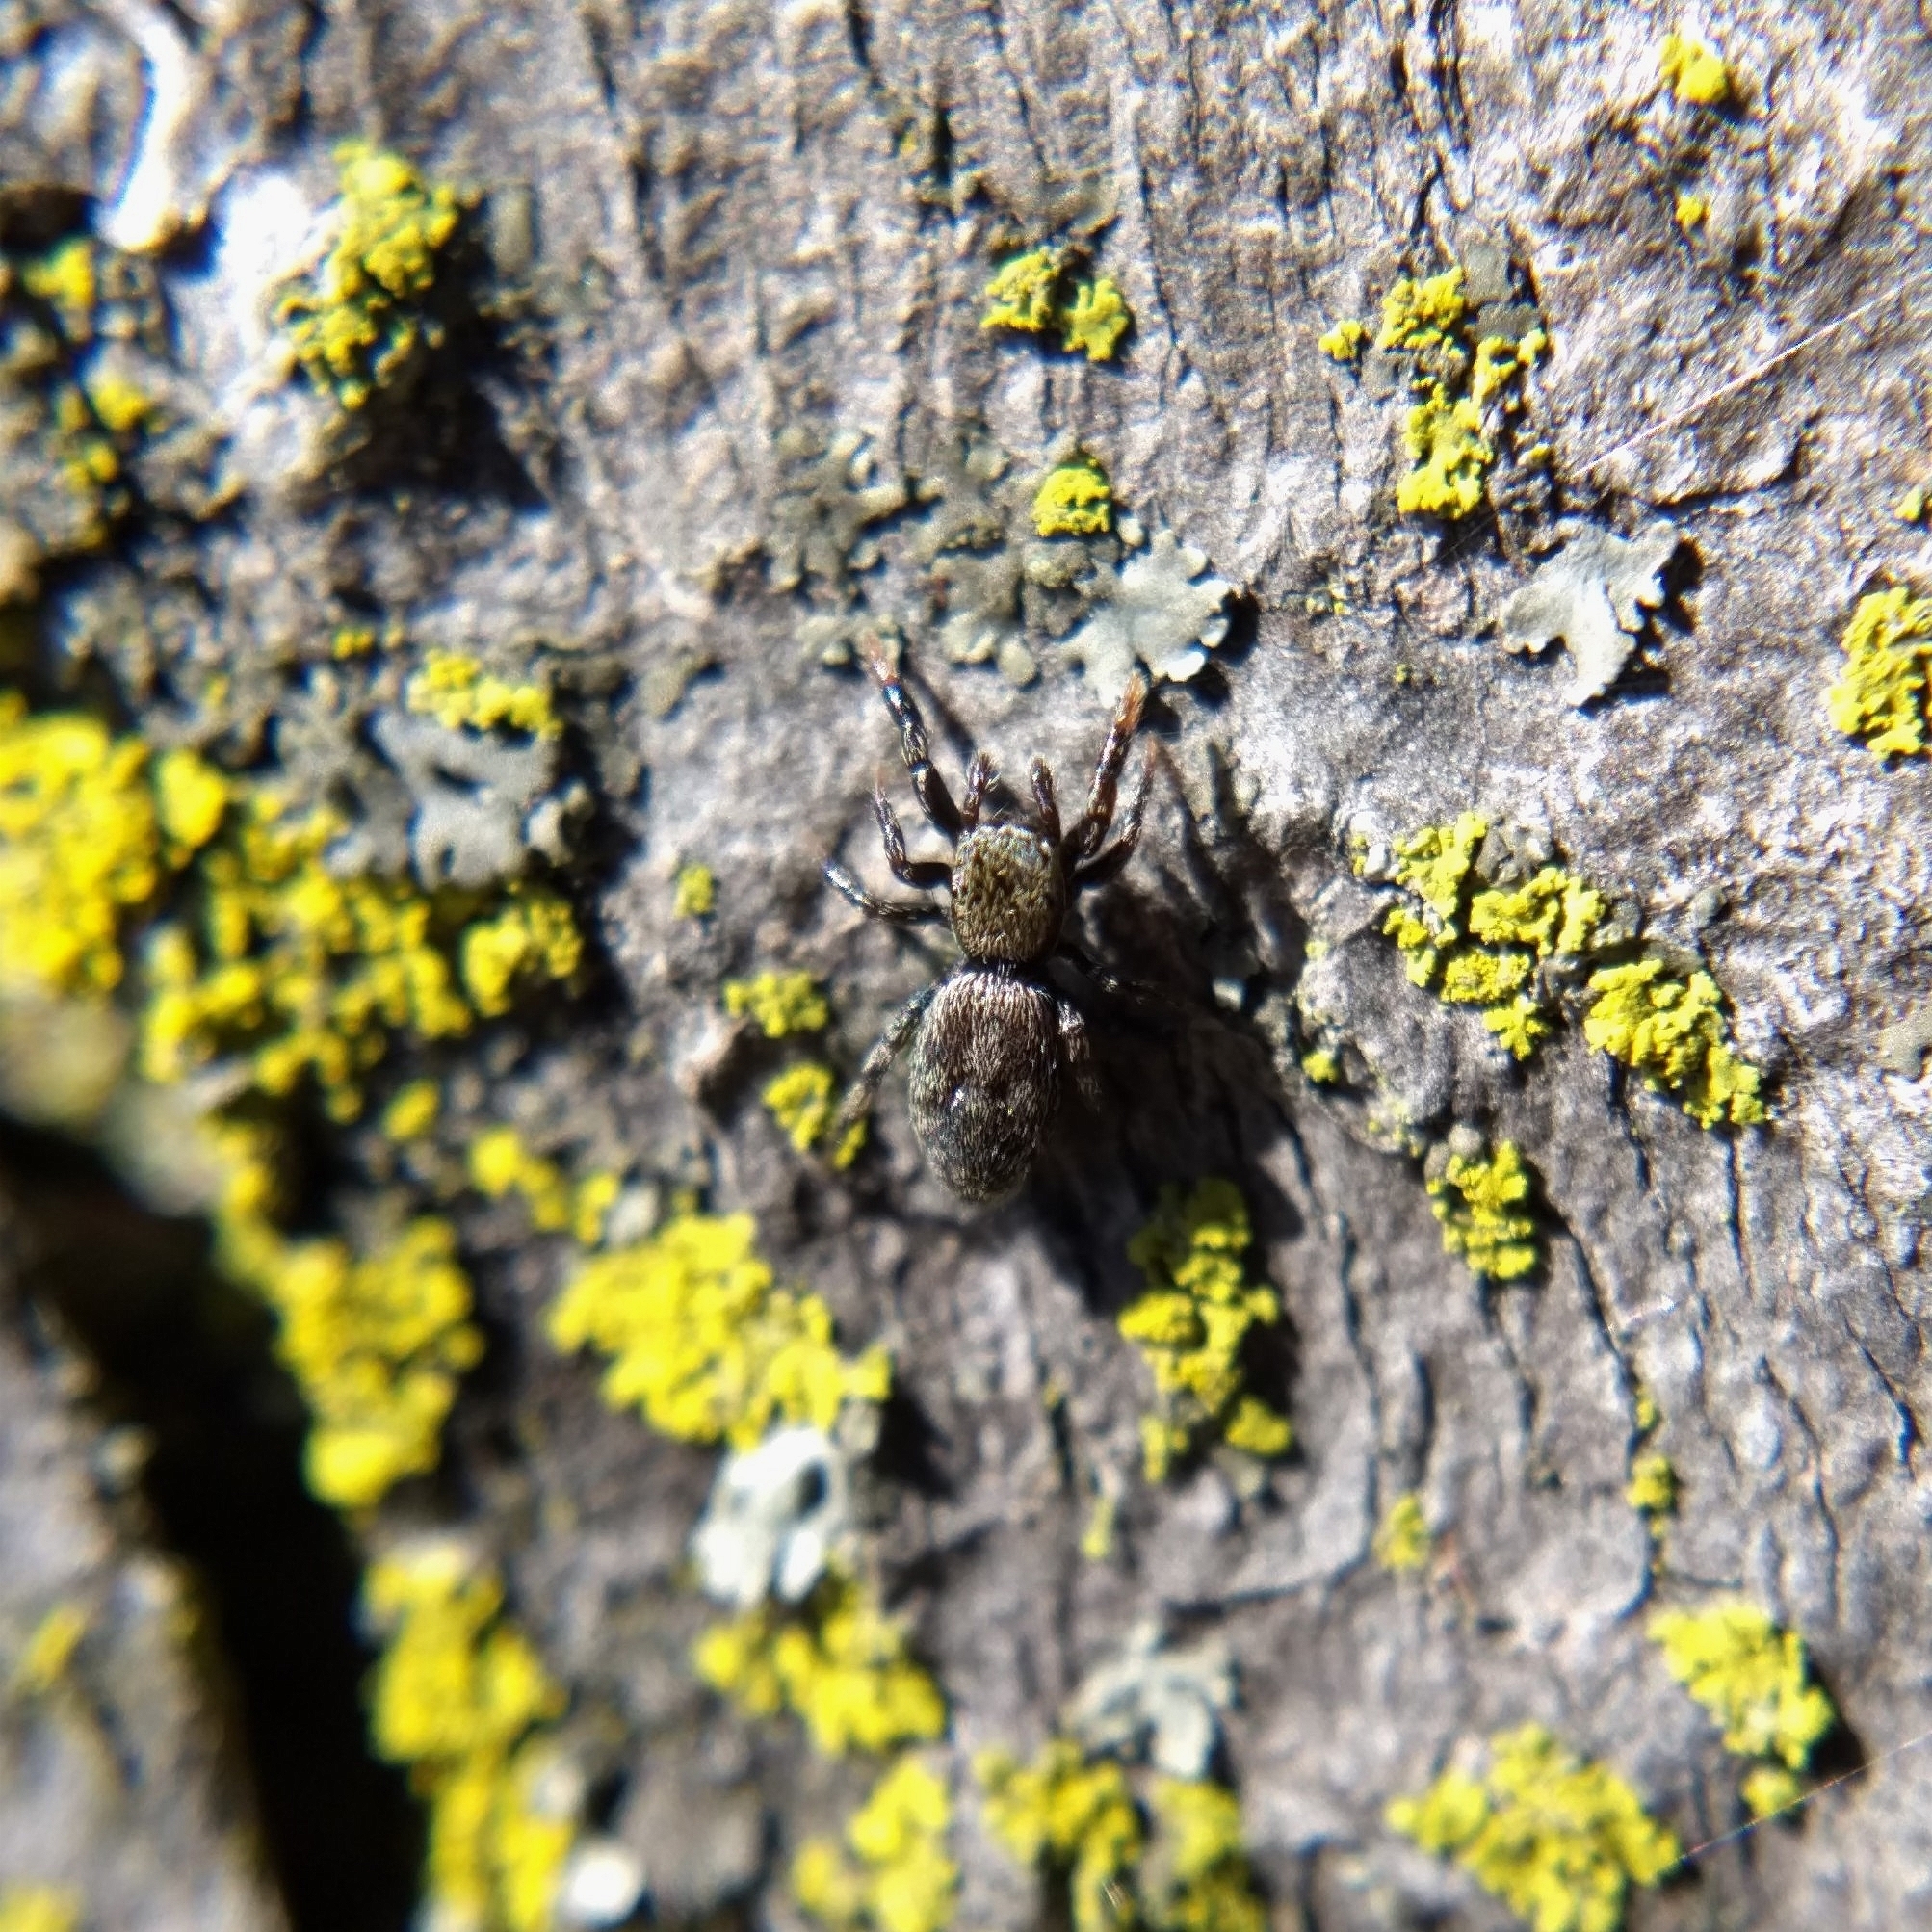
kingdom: Animalia
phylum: Arthropoda
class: Arachnida
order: Araneae
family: Salticidae
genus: Tutelina
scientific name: Tutelina harti
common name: Hart's jumping spider
